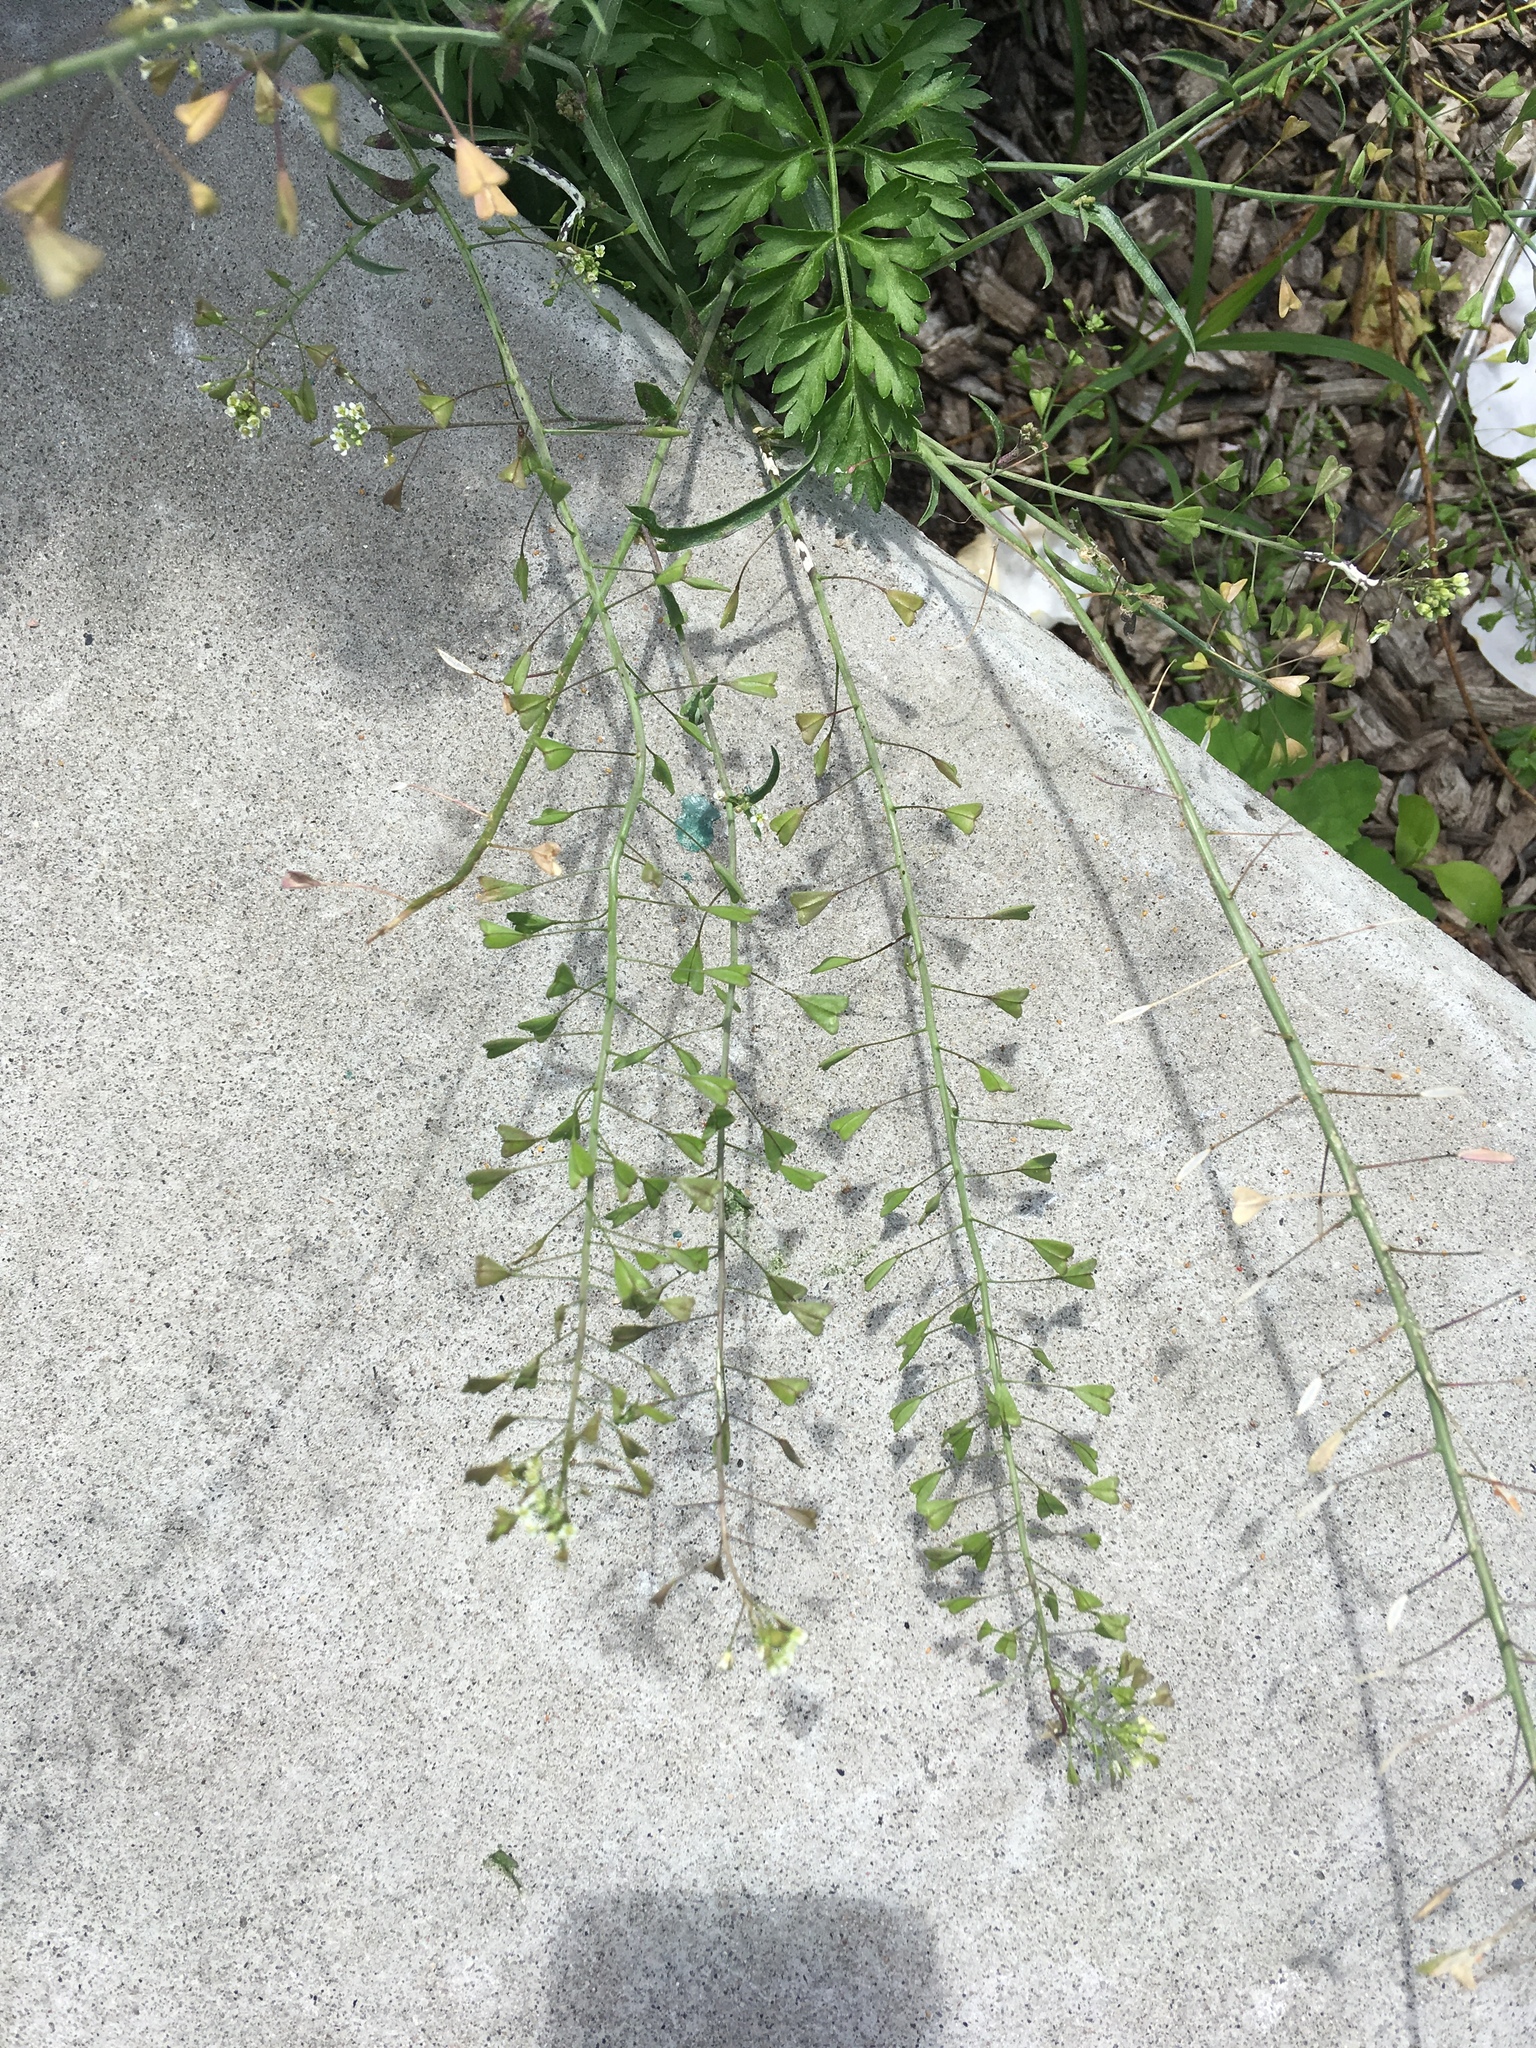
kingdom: Plantae
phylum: Tracheophyta
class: Magnoliopsida
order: Brassicales
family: Brassicaceae
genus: Capsella
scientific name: Capsella bursa-pastoris
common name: Shepherd's purse
